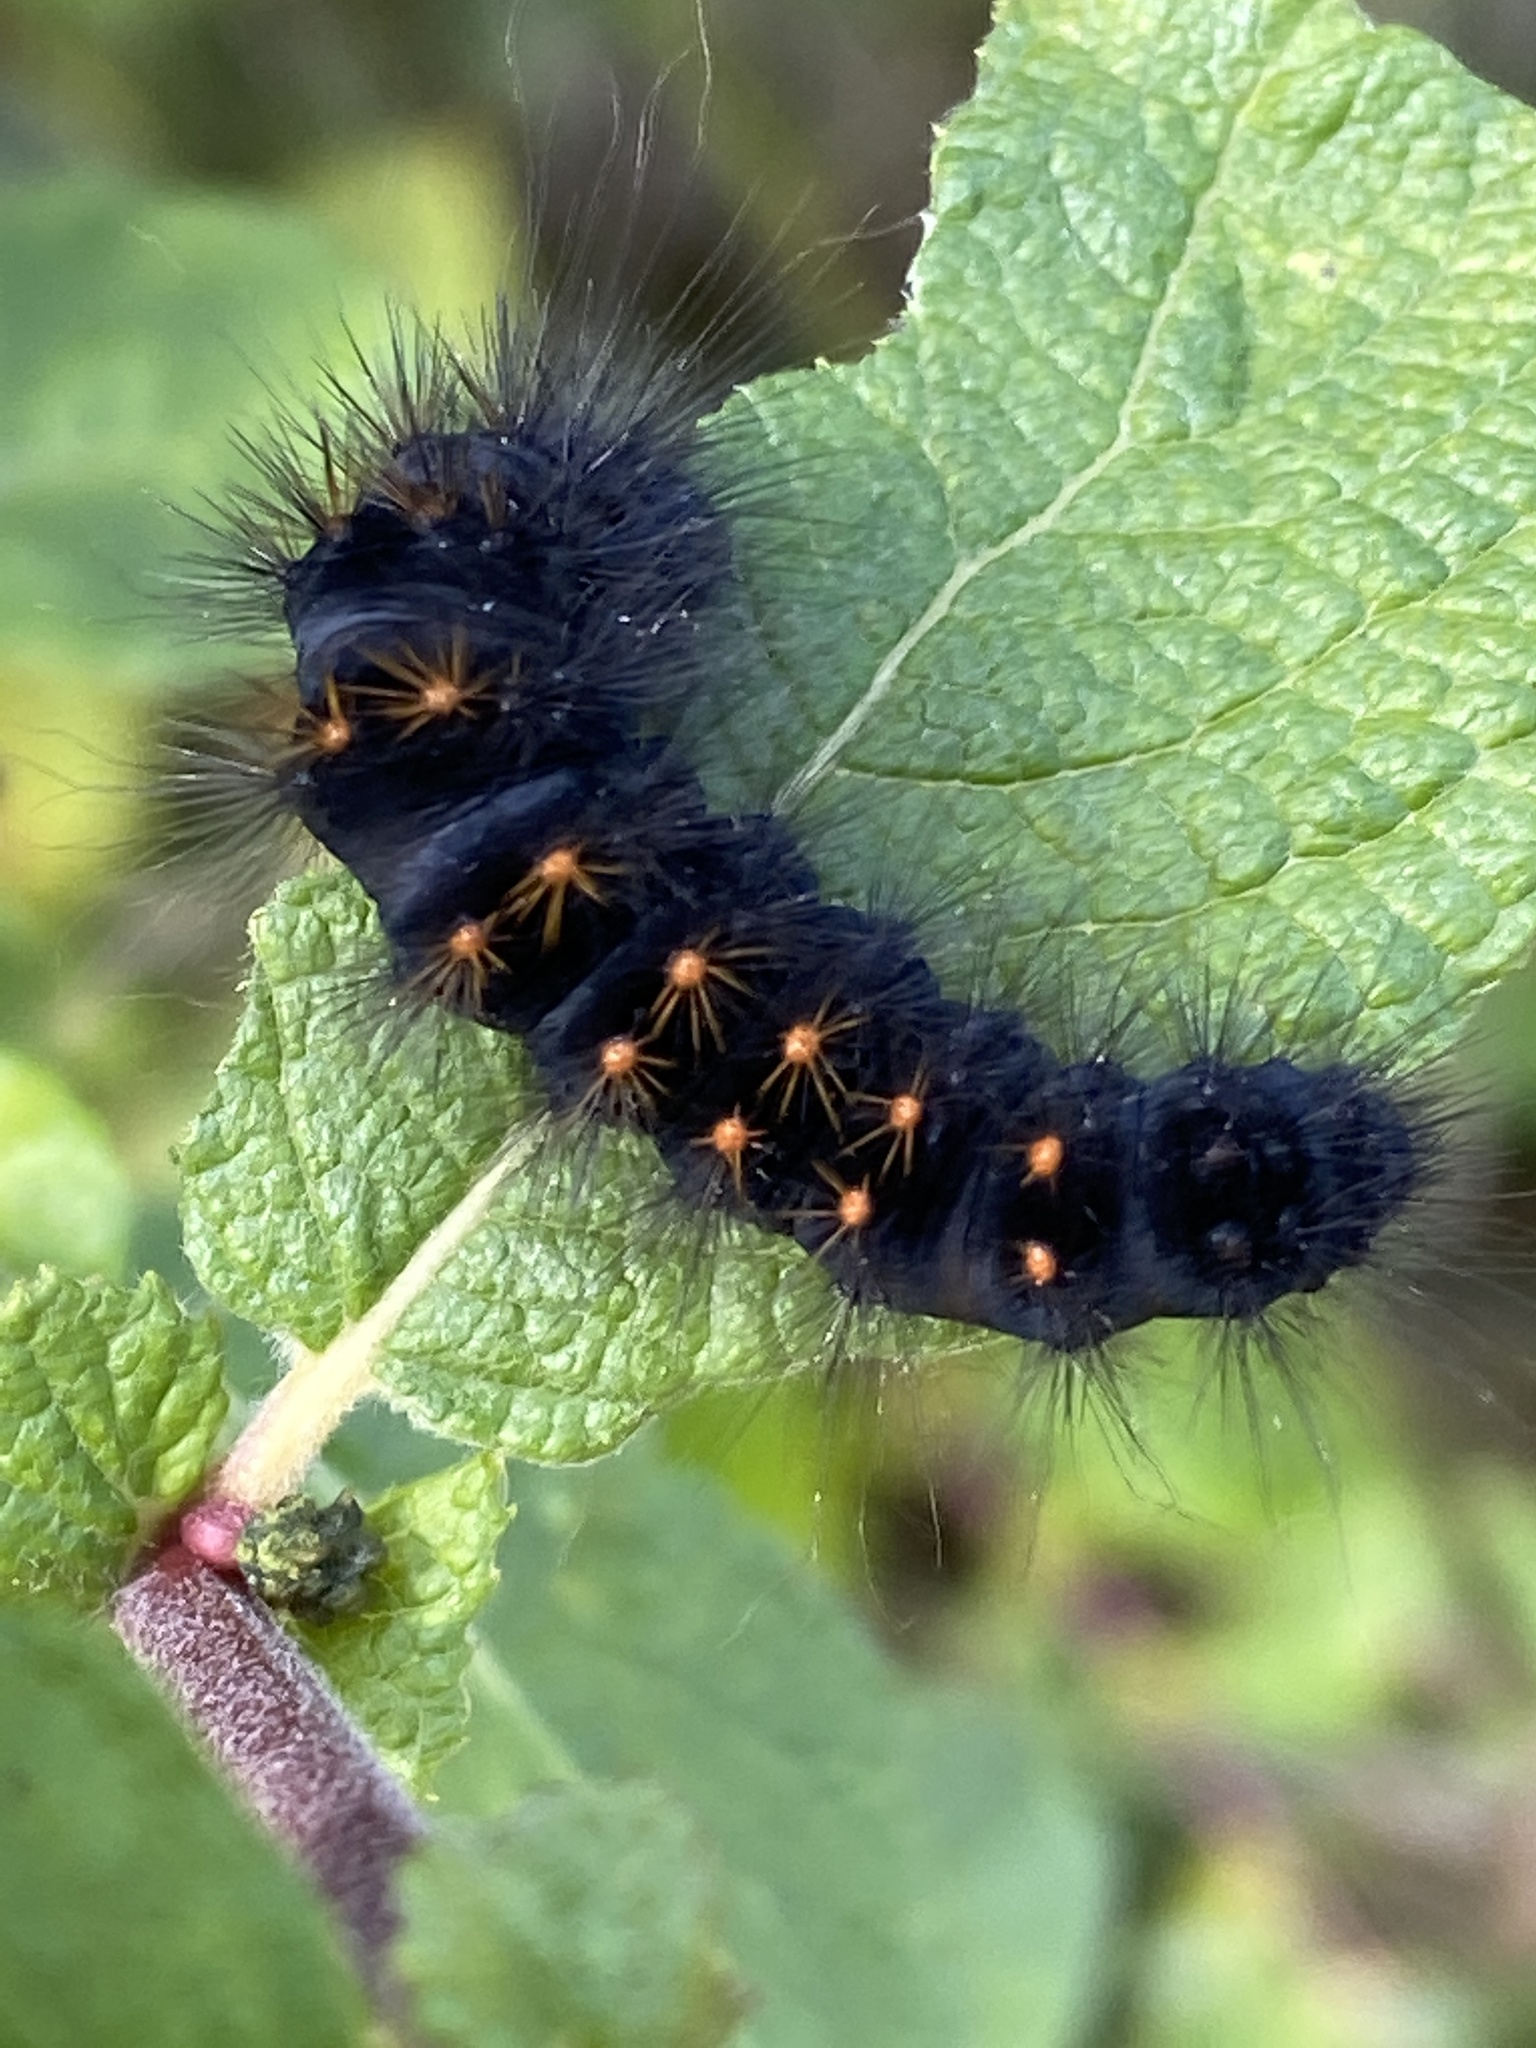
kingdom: Animalia
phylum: Arthropoda
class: Insecta
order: Lepidoptera
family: Noctuidae
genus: Acronicta
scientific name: Acronicta auricoma
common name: Scarce dagger
